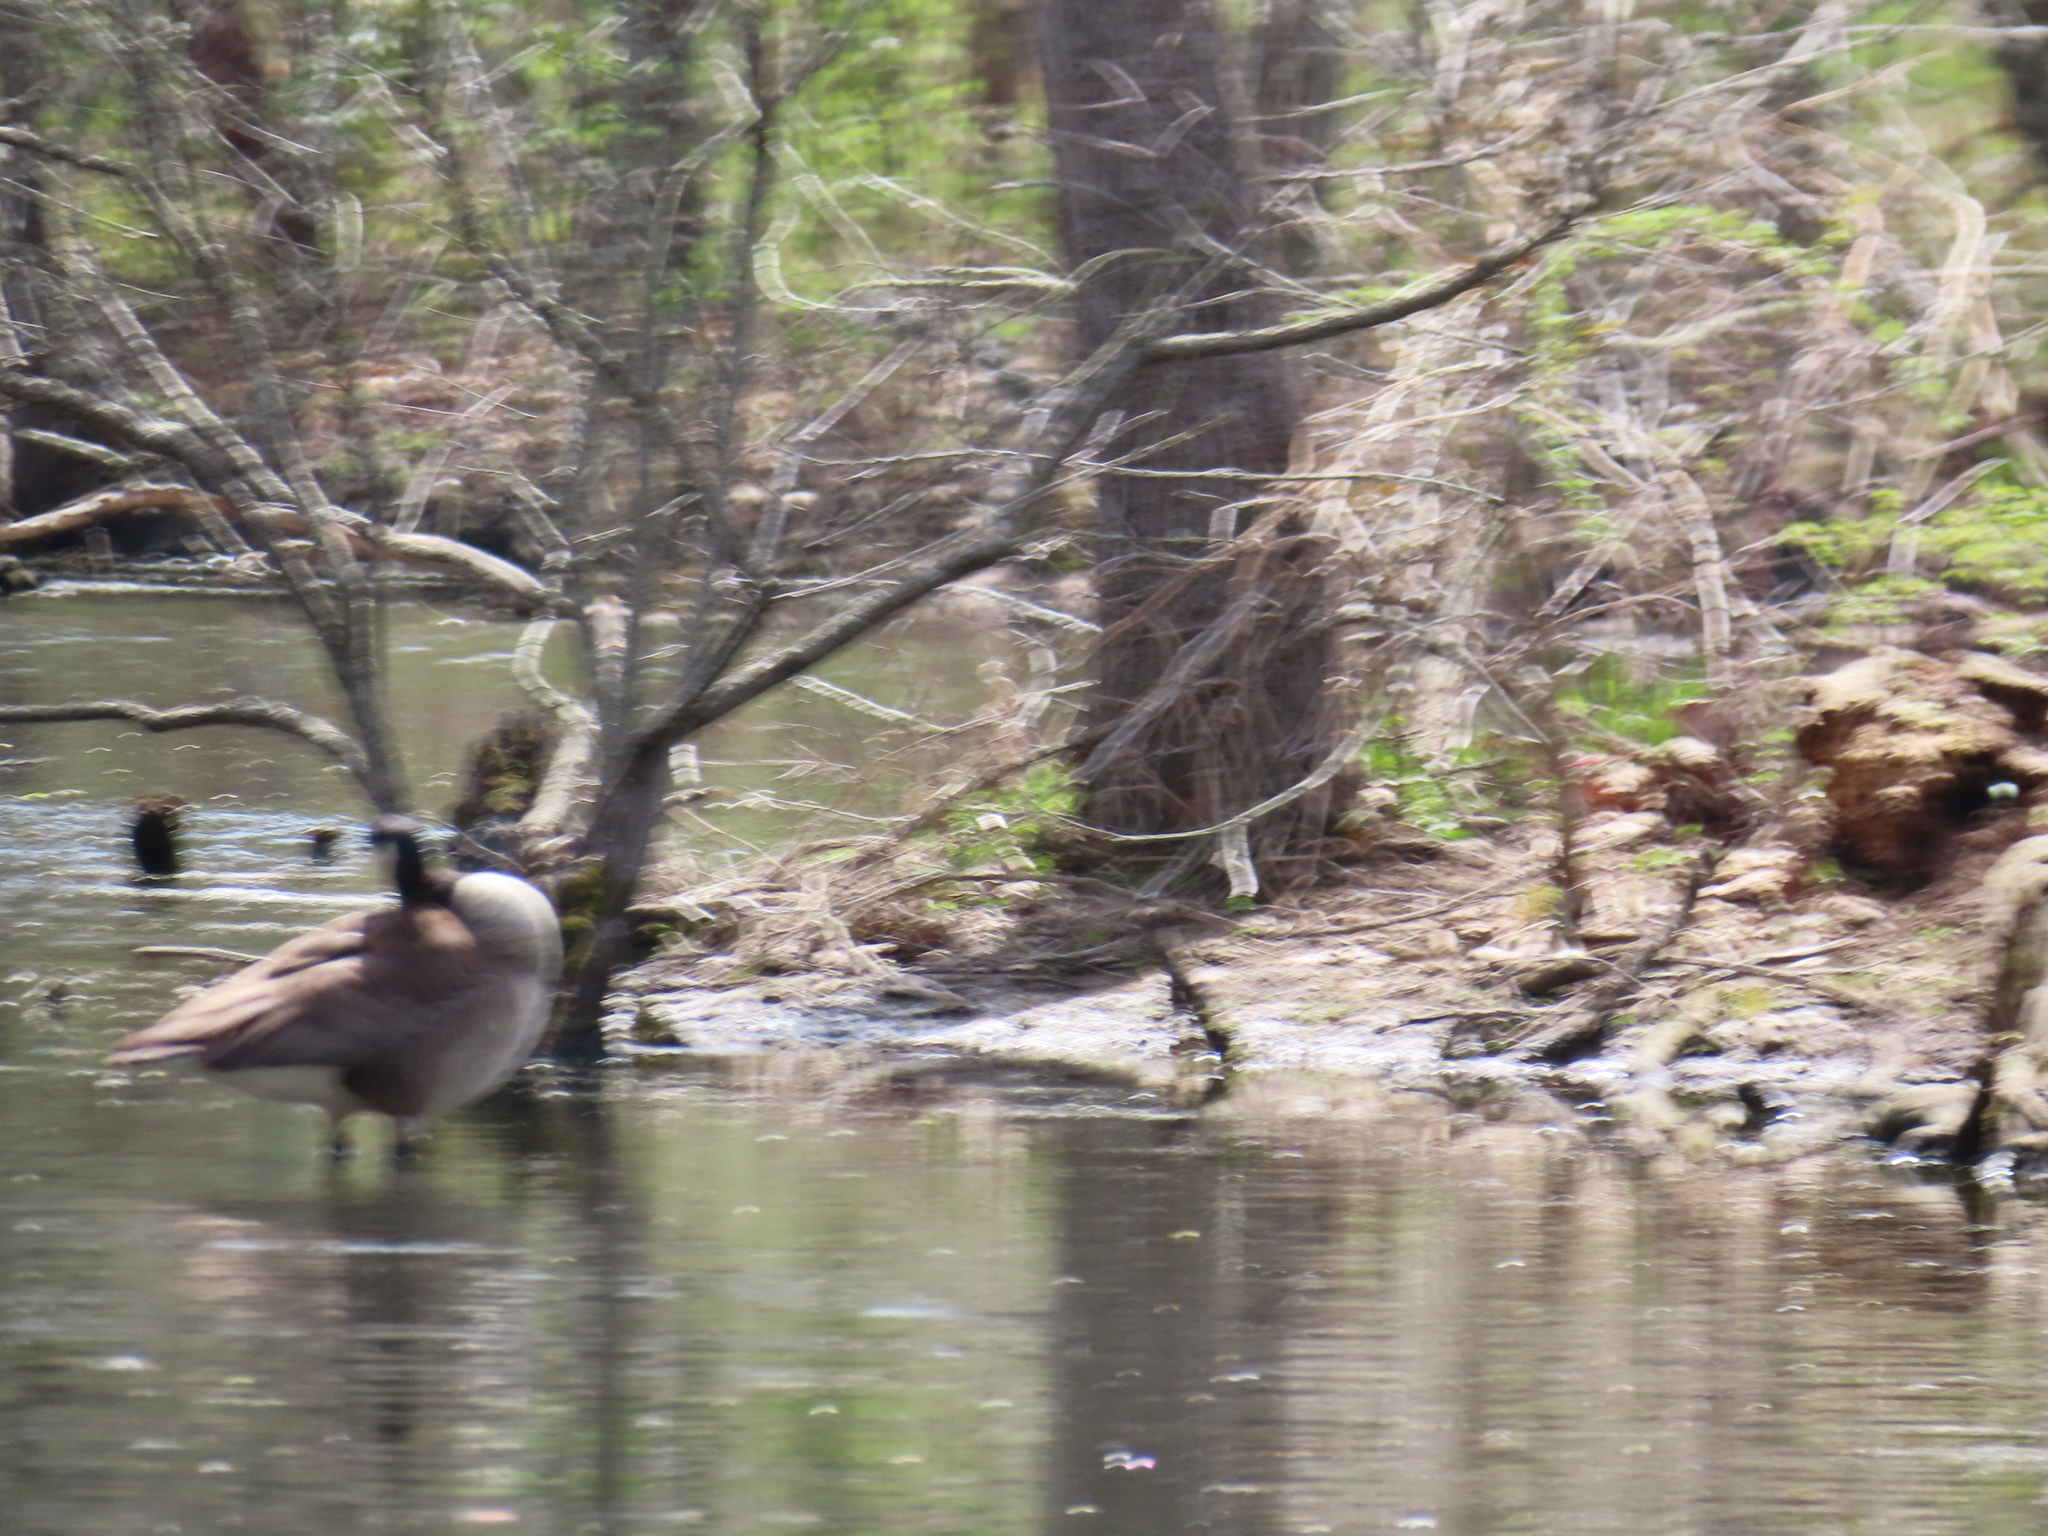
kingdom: Animalia
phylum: Chordata
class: Aves
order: Anseriformes
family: Anatidae
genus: Branta
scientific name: Branta canadensis
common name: Canada goose
